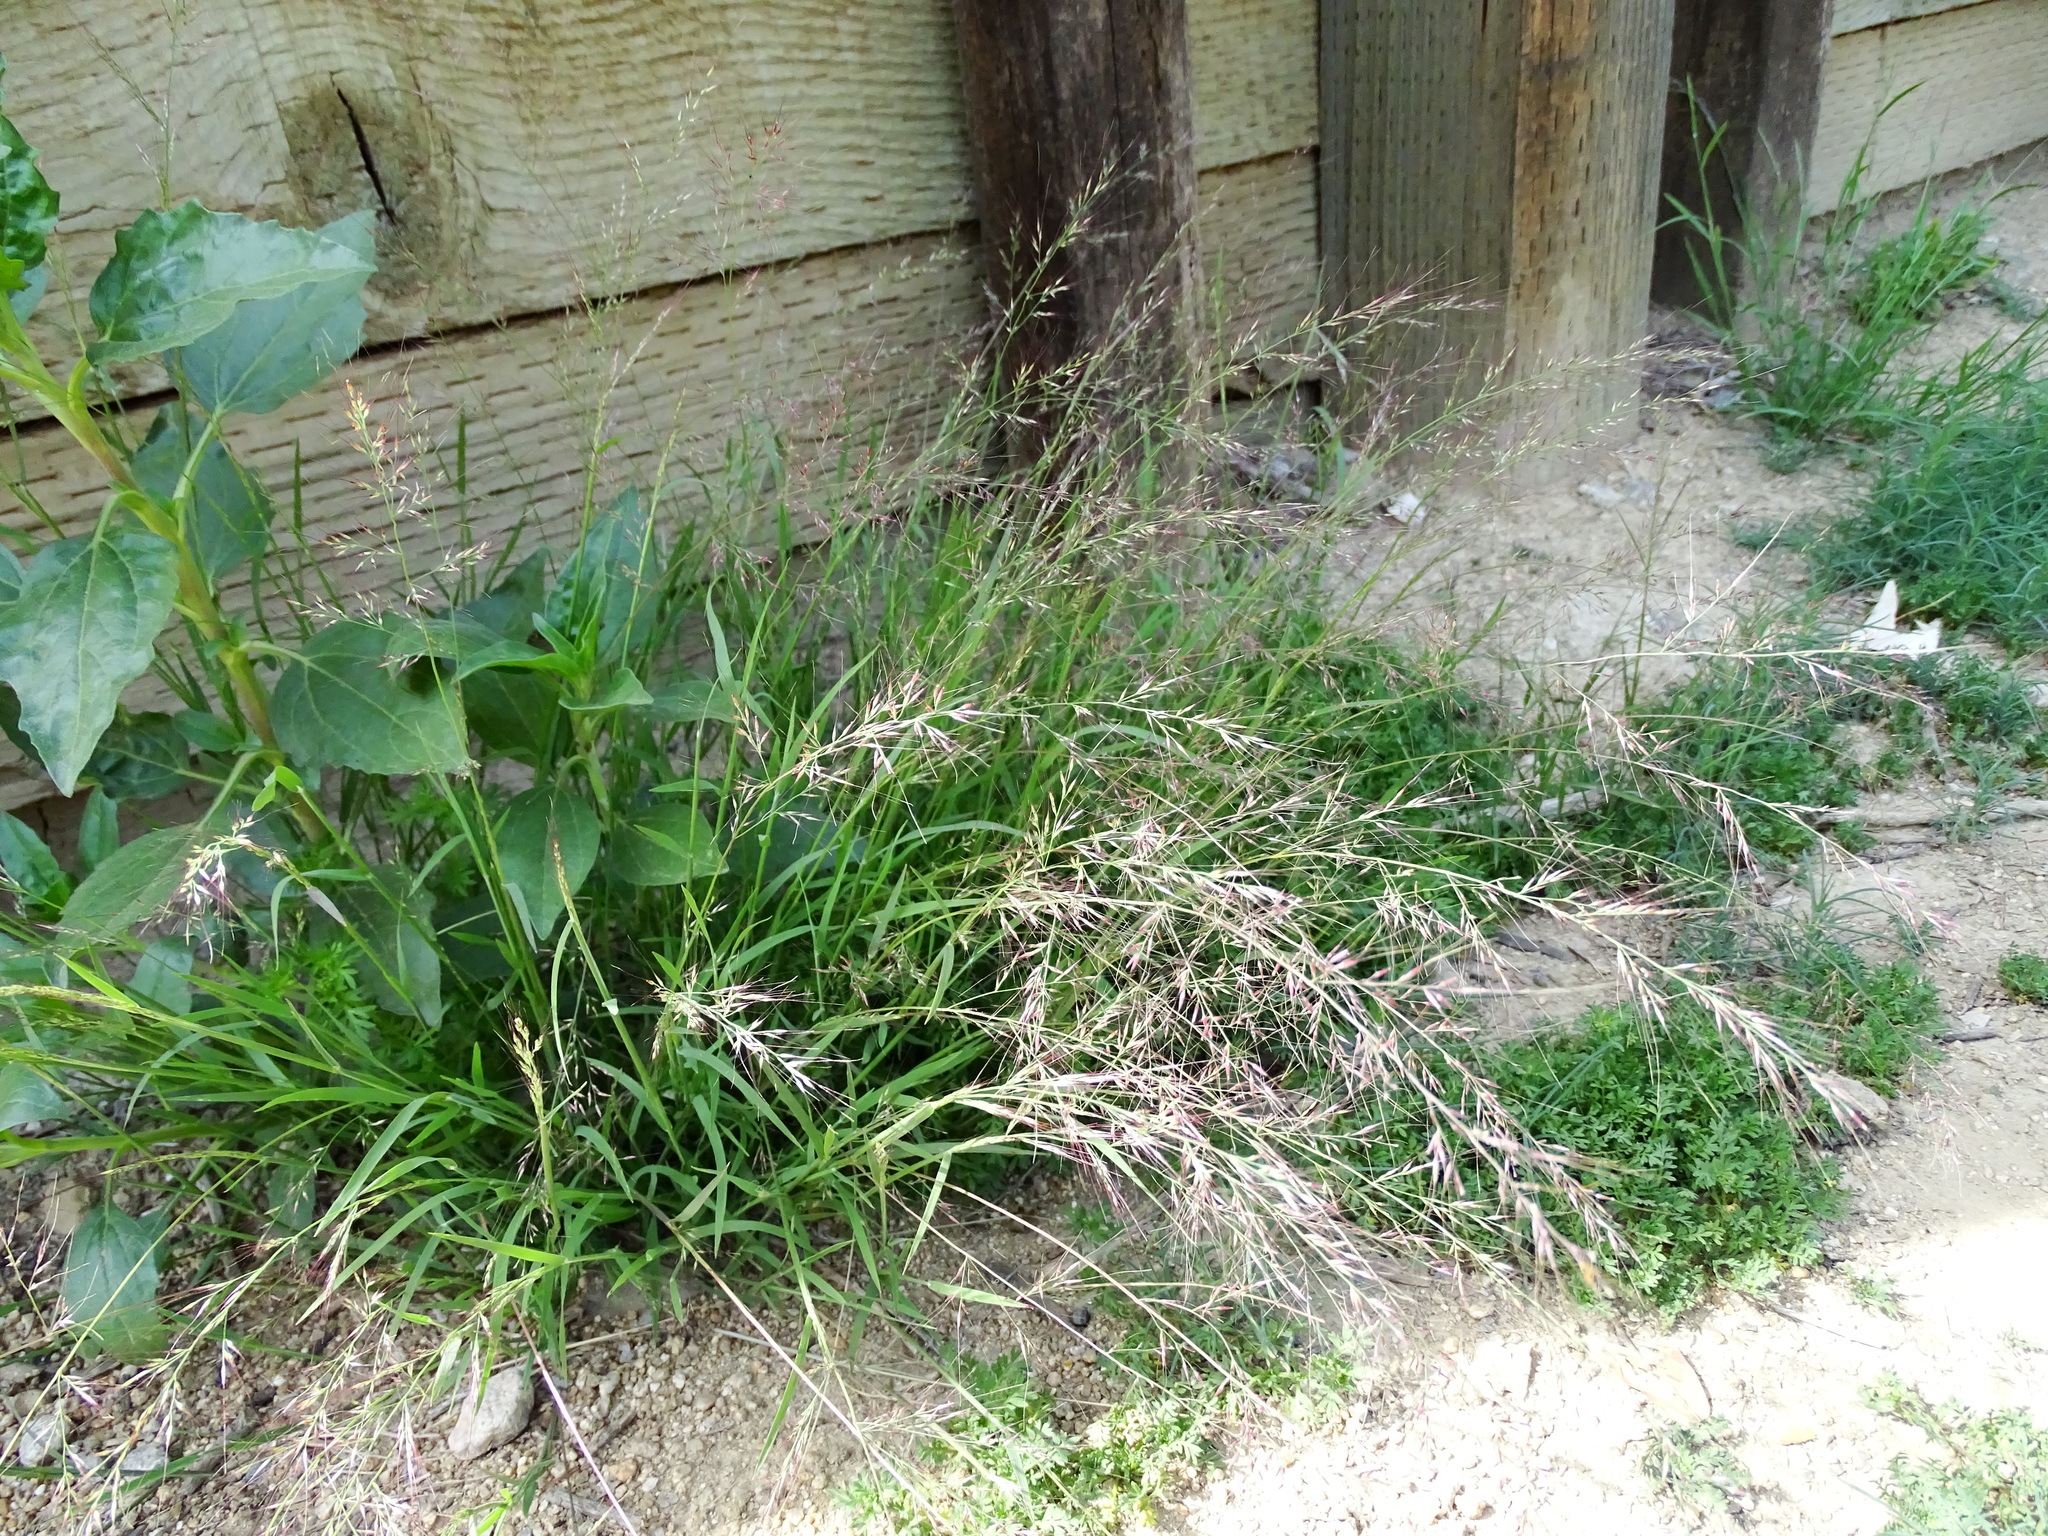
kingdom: Plantae
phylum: Tracheophyta
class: Liliopsida
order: Poales
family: Poaceae
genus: Muhlenbergia
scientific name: Muhlenbergia microsperma
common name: Littleseed muhly
